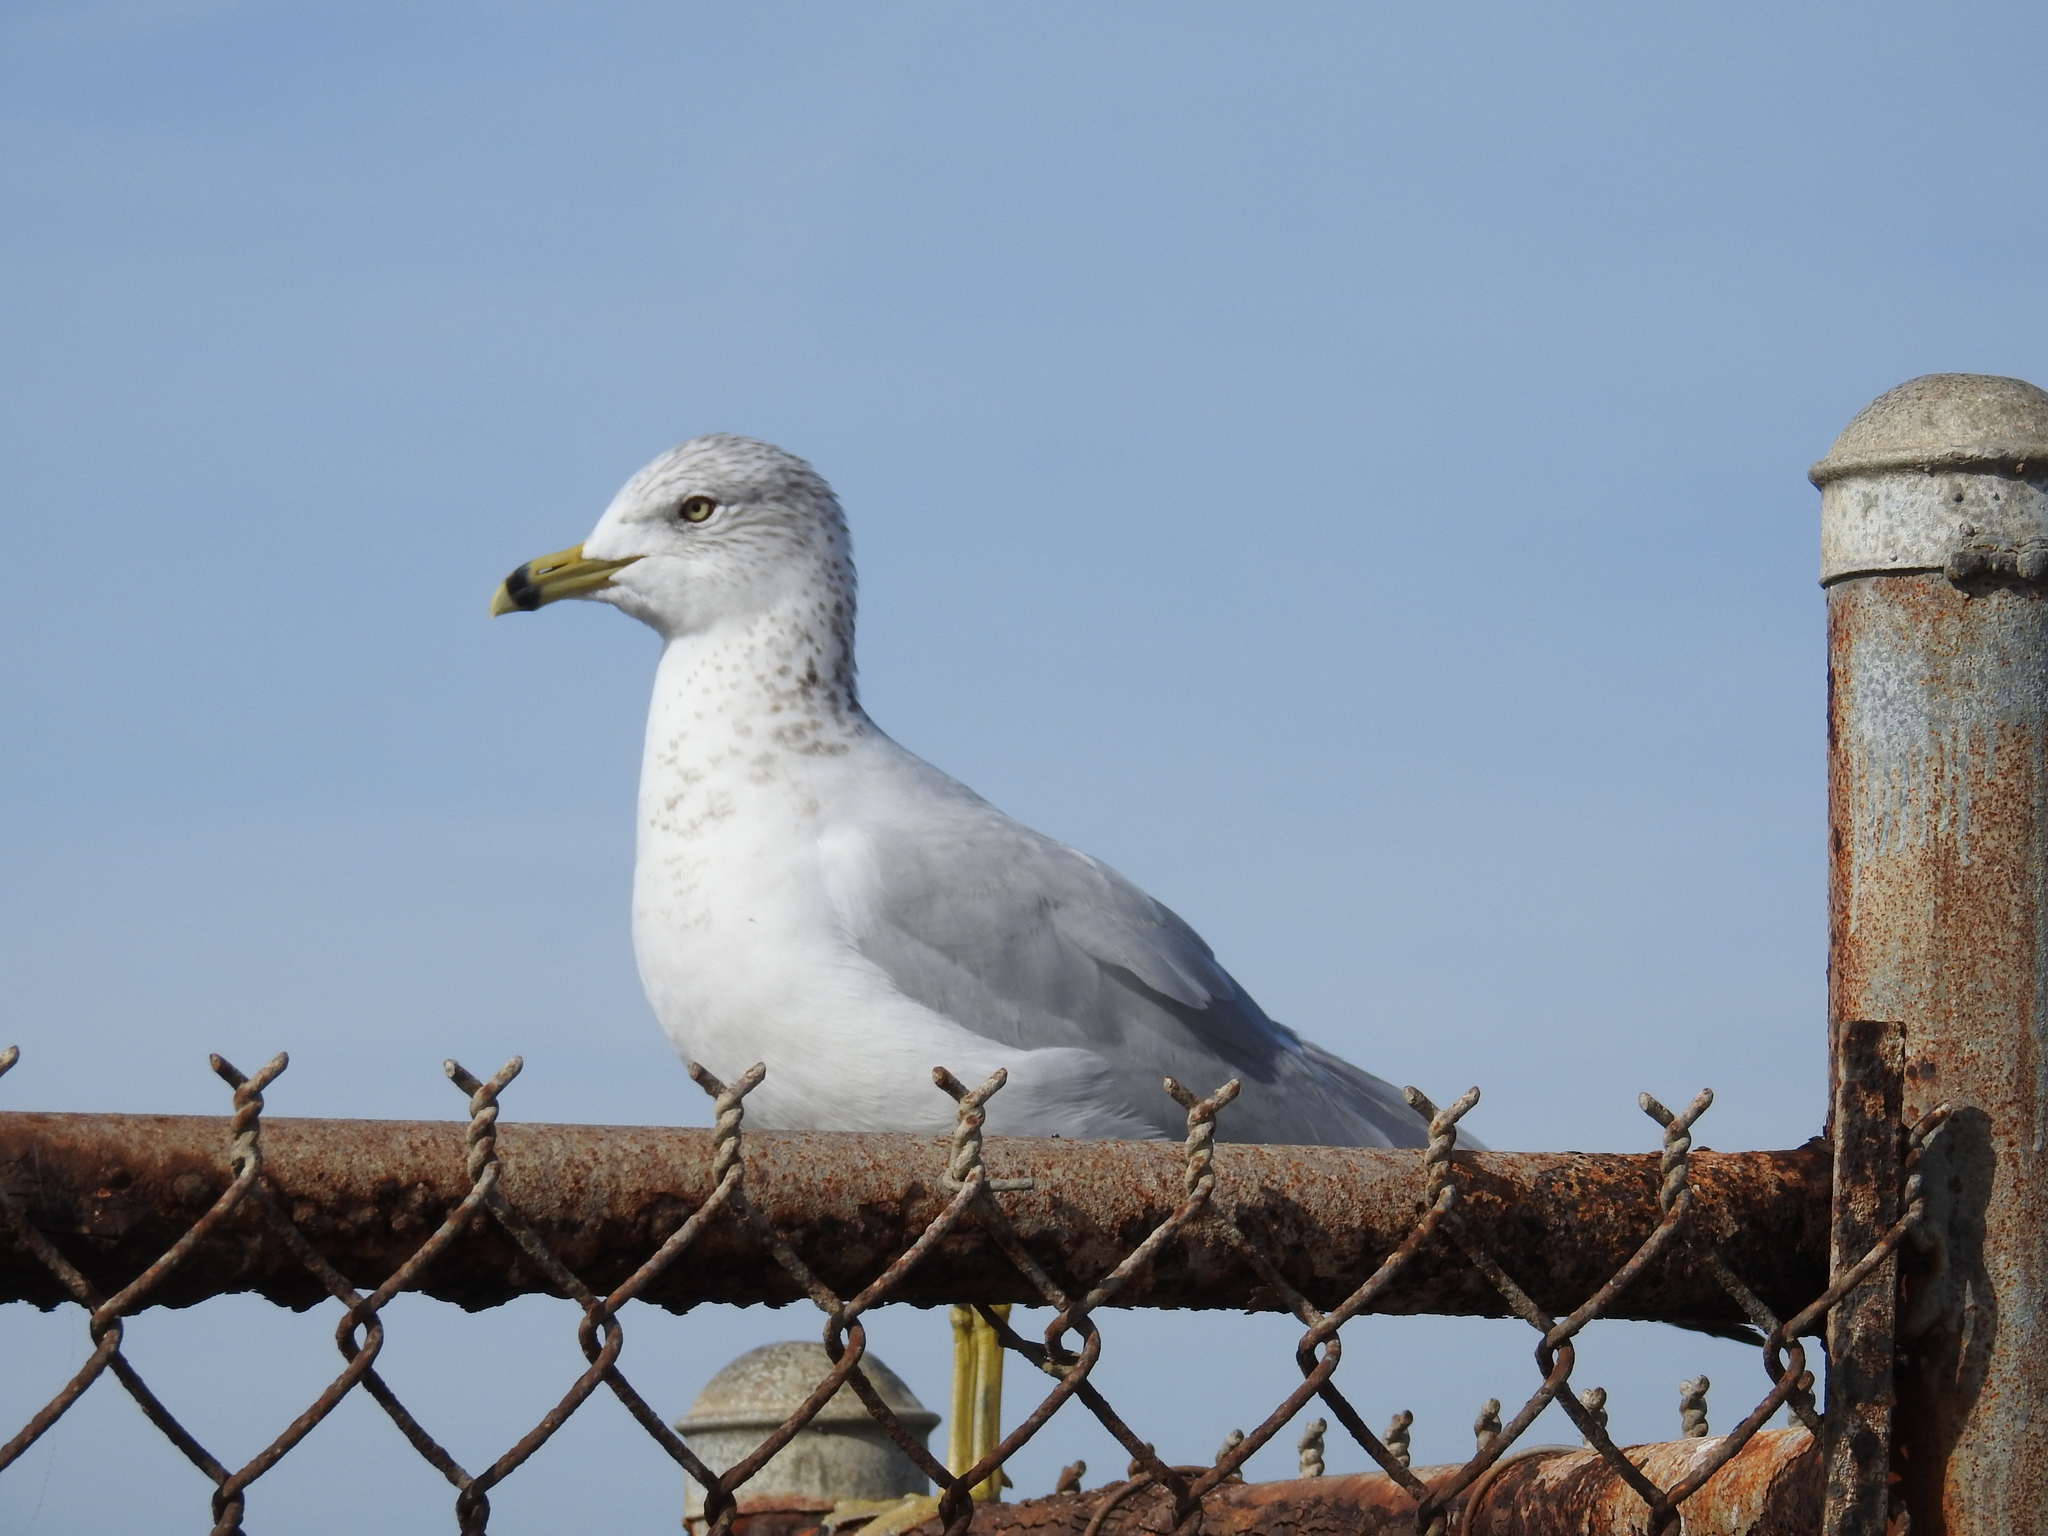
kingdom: Animalia
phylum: Chordata
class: Aves
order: Charadriiformes
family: Laridae
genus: Larus
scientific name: Larus delawarensis
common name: Ring-billed gull
